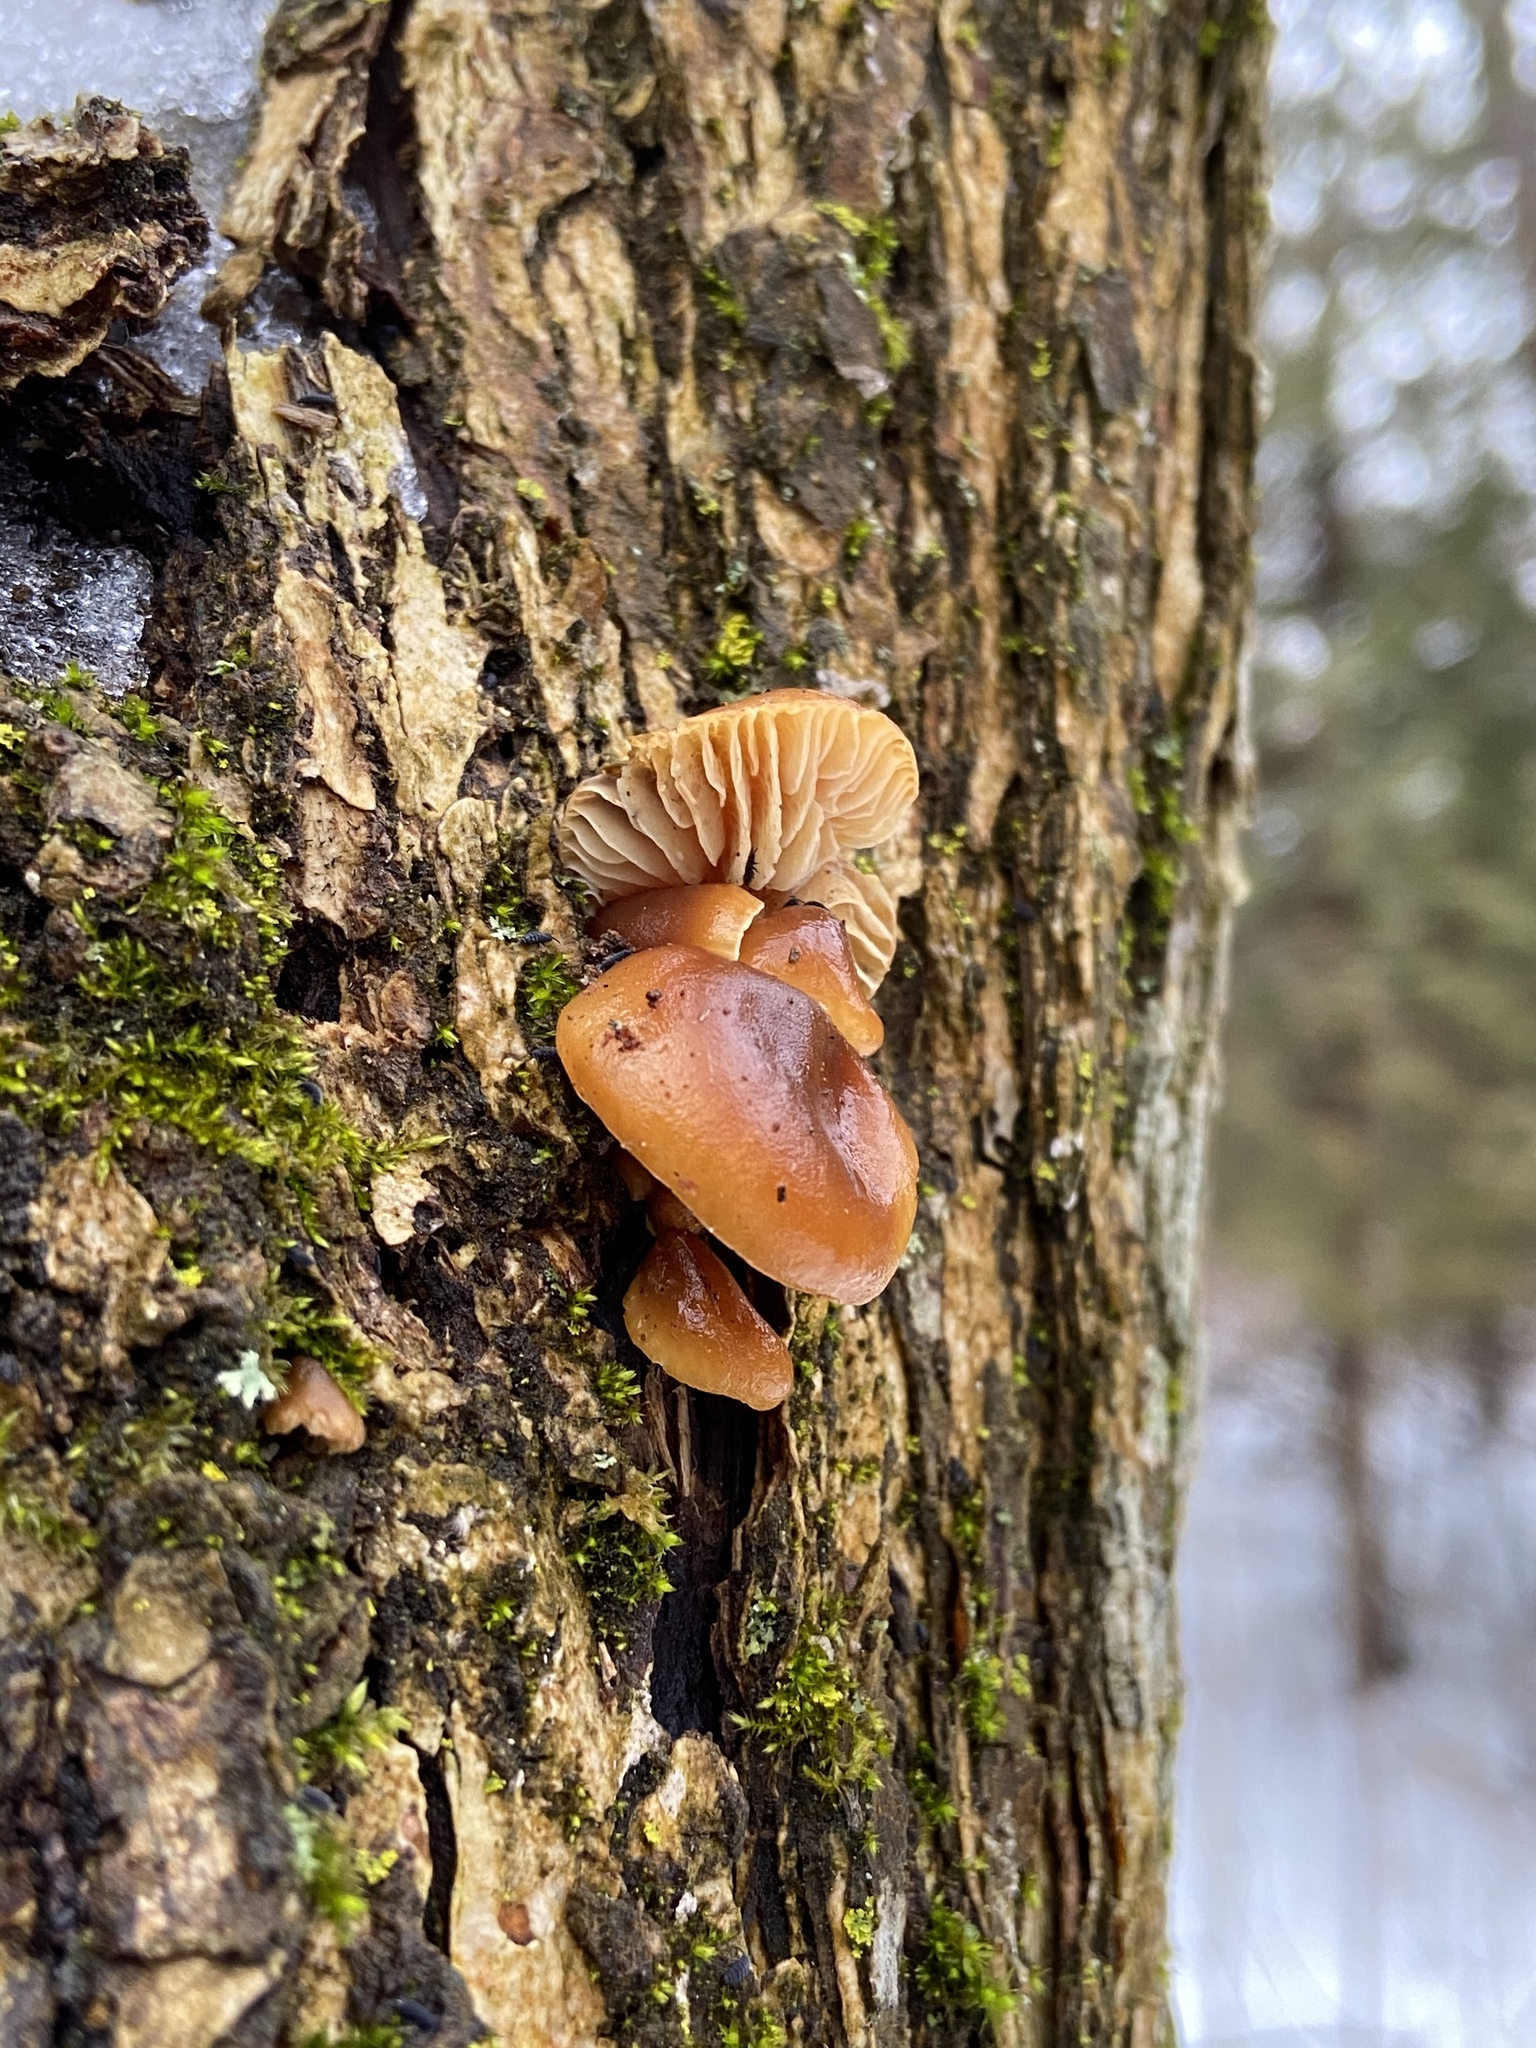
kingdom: Fungi
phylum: Basidiomycota
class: Agaricomycetes
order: Agaricales
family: Physalacriaceae
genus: Flammulina
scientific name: Flammulina velutipes
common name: Velvet shank
